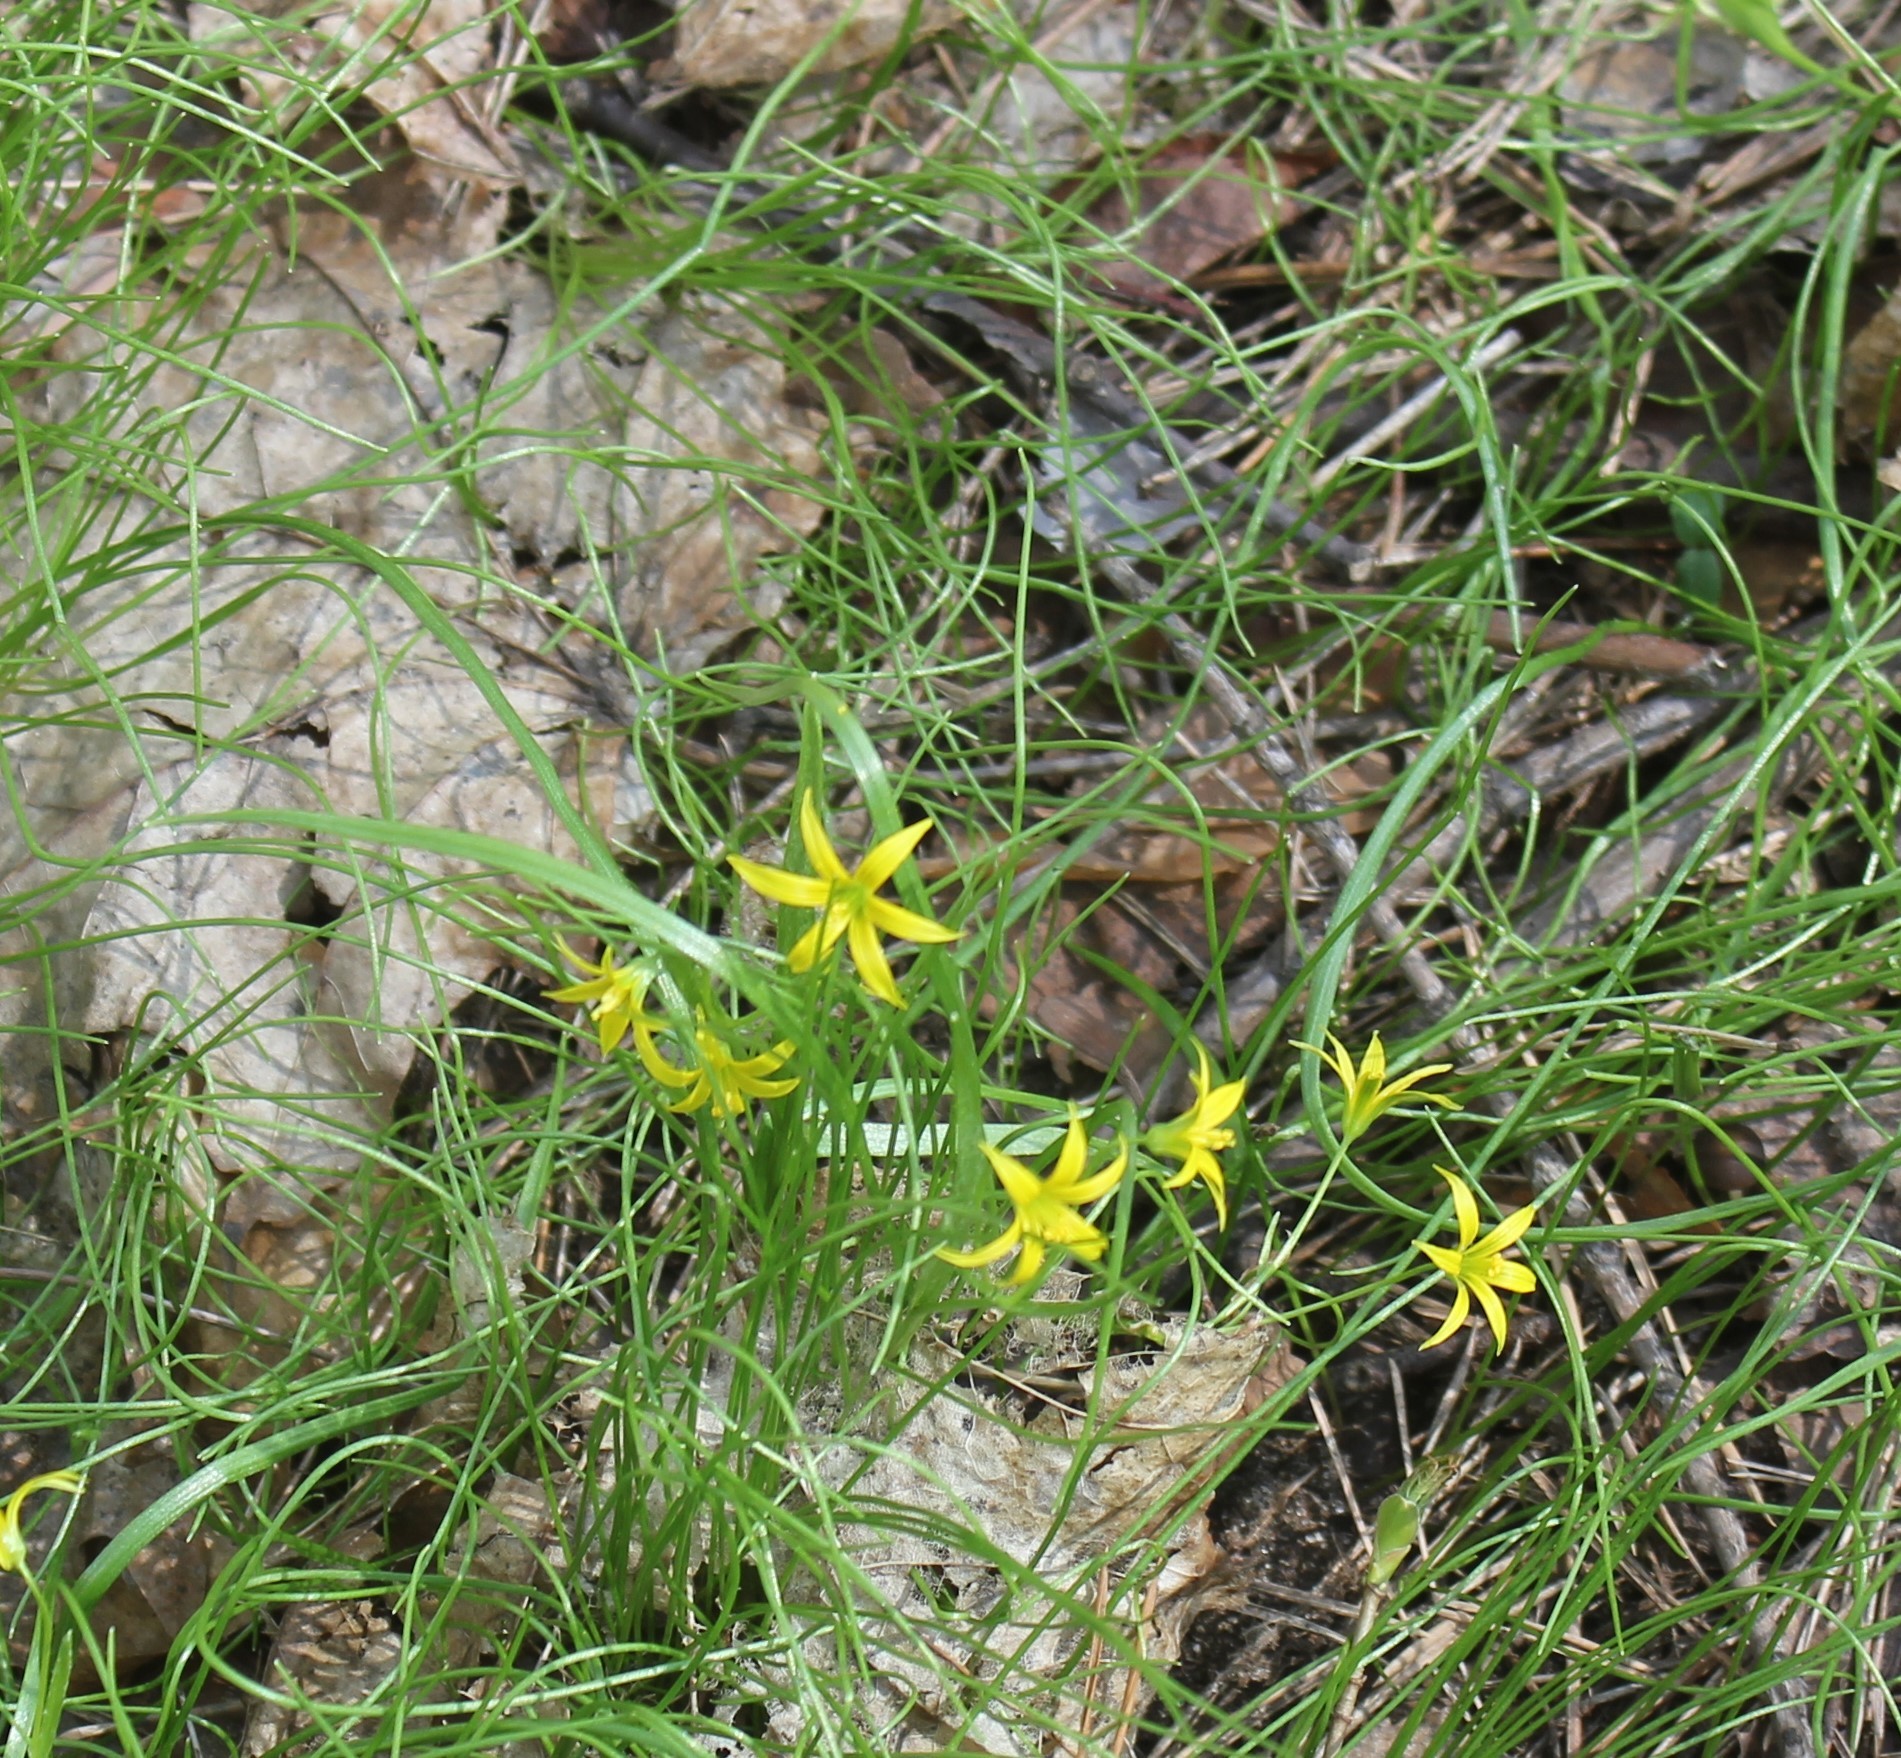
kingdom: Plantae
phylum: Tracheophyta
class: Liliopsida
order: Liliales
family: Liliaceae
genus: Gagea
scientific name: Gagea minima
